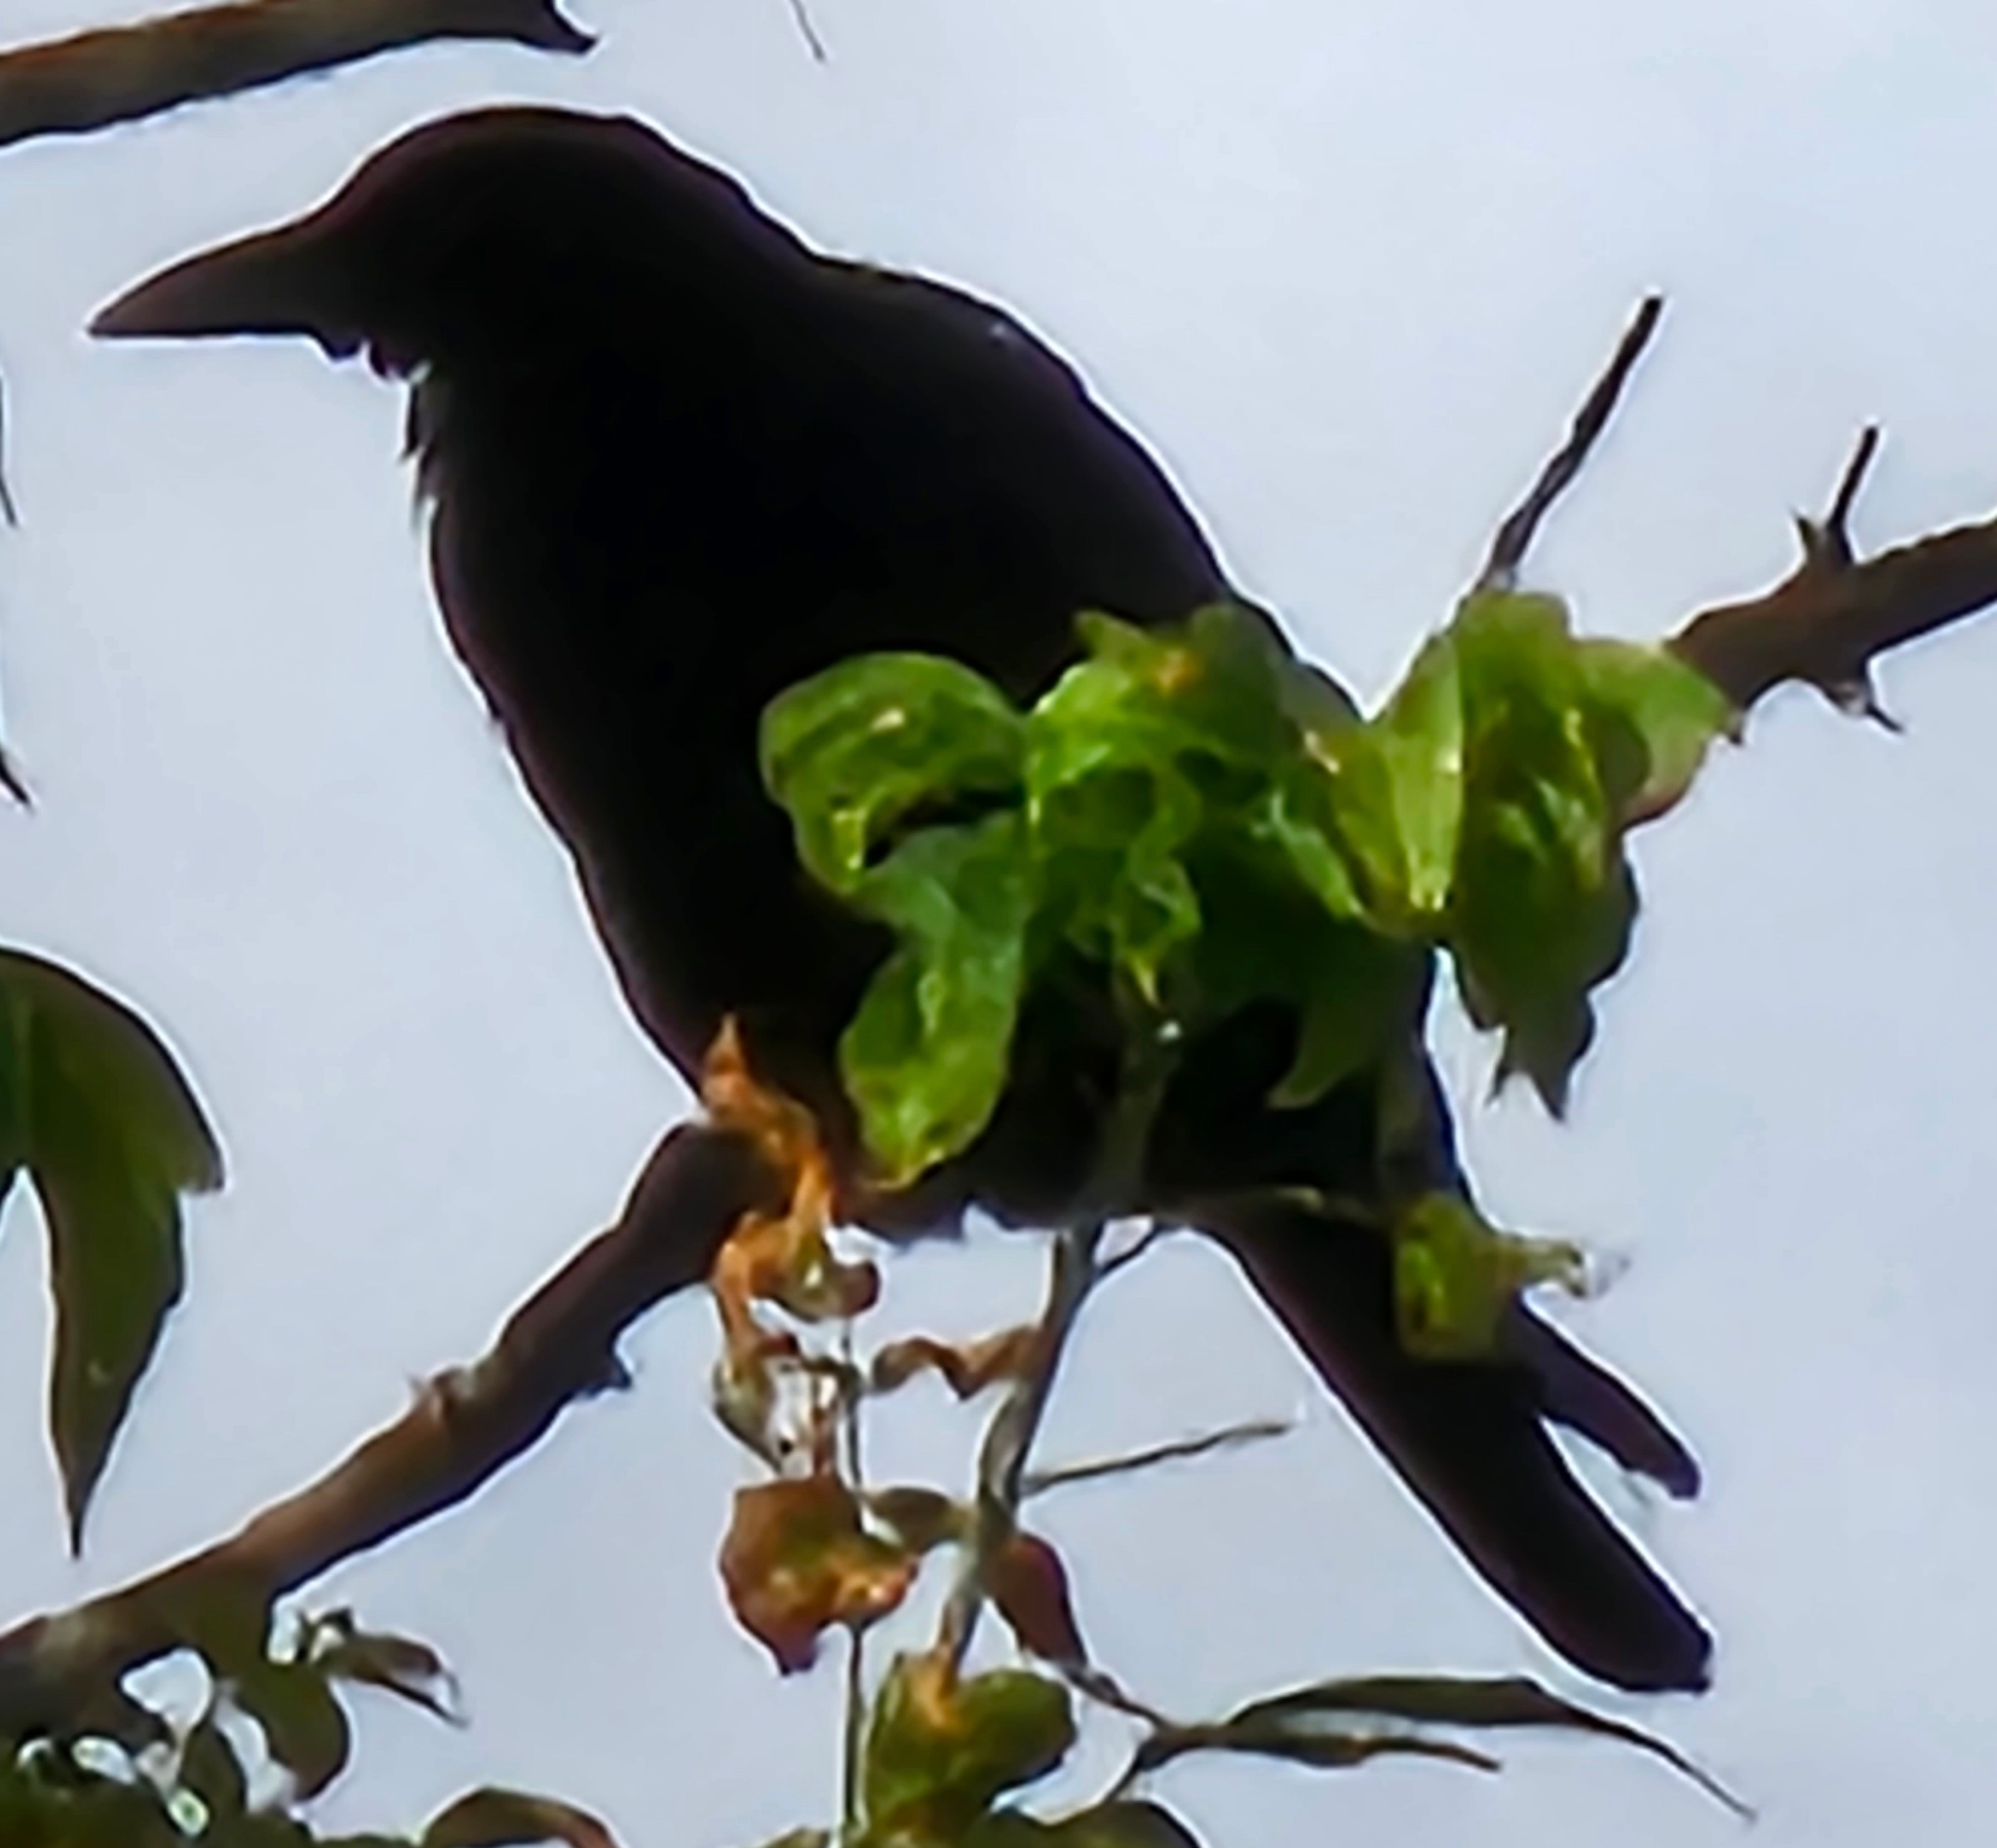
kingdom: Animalia
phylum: Chordata
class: Aves
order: Passeriformes
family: Corvidae
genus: Corvus
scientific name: Corvus brachyrhynchos
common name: American crow
